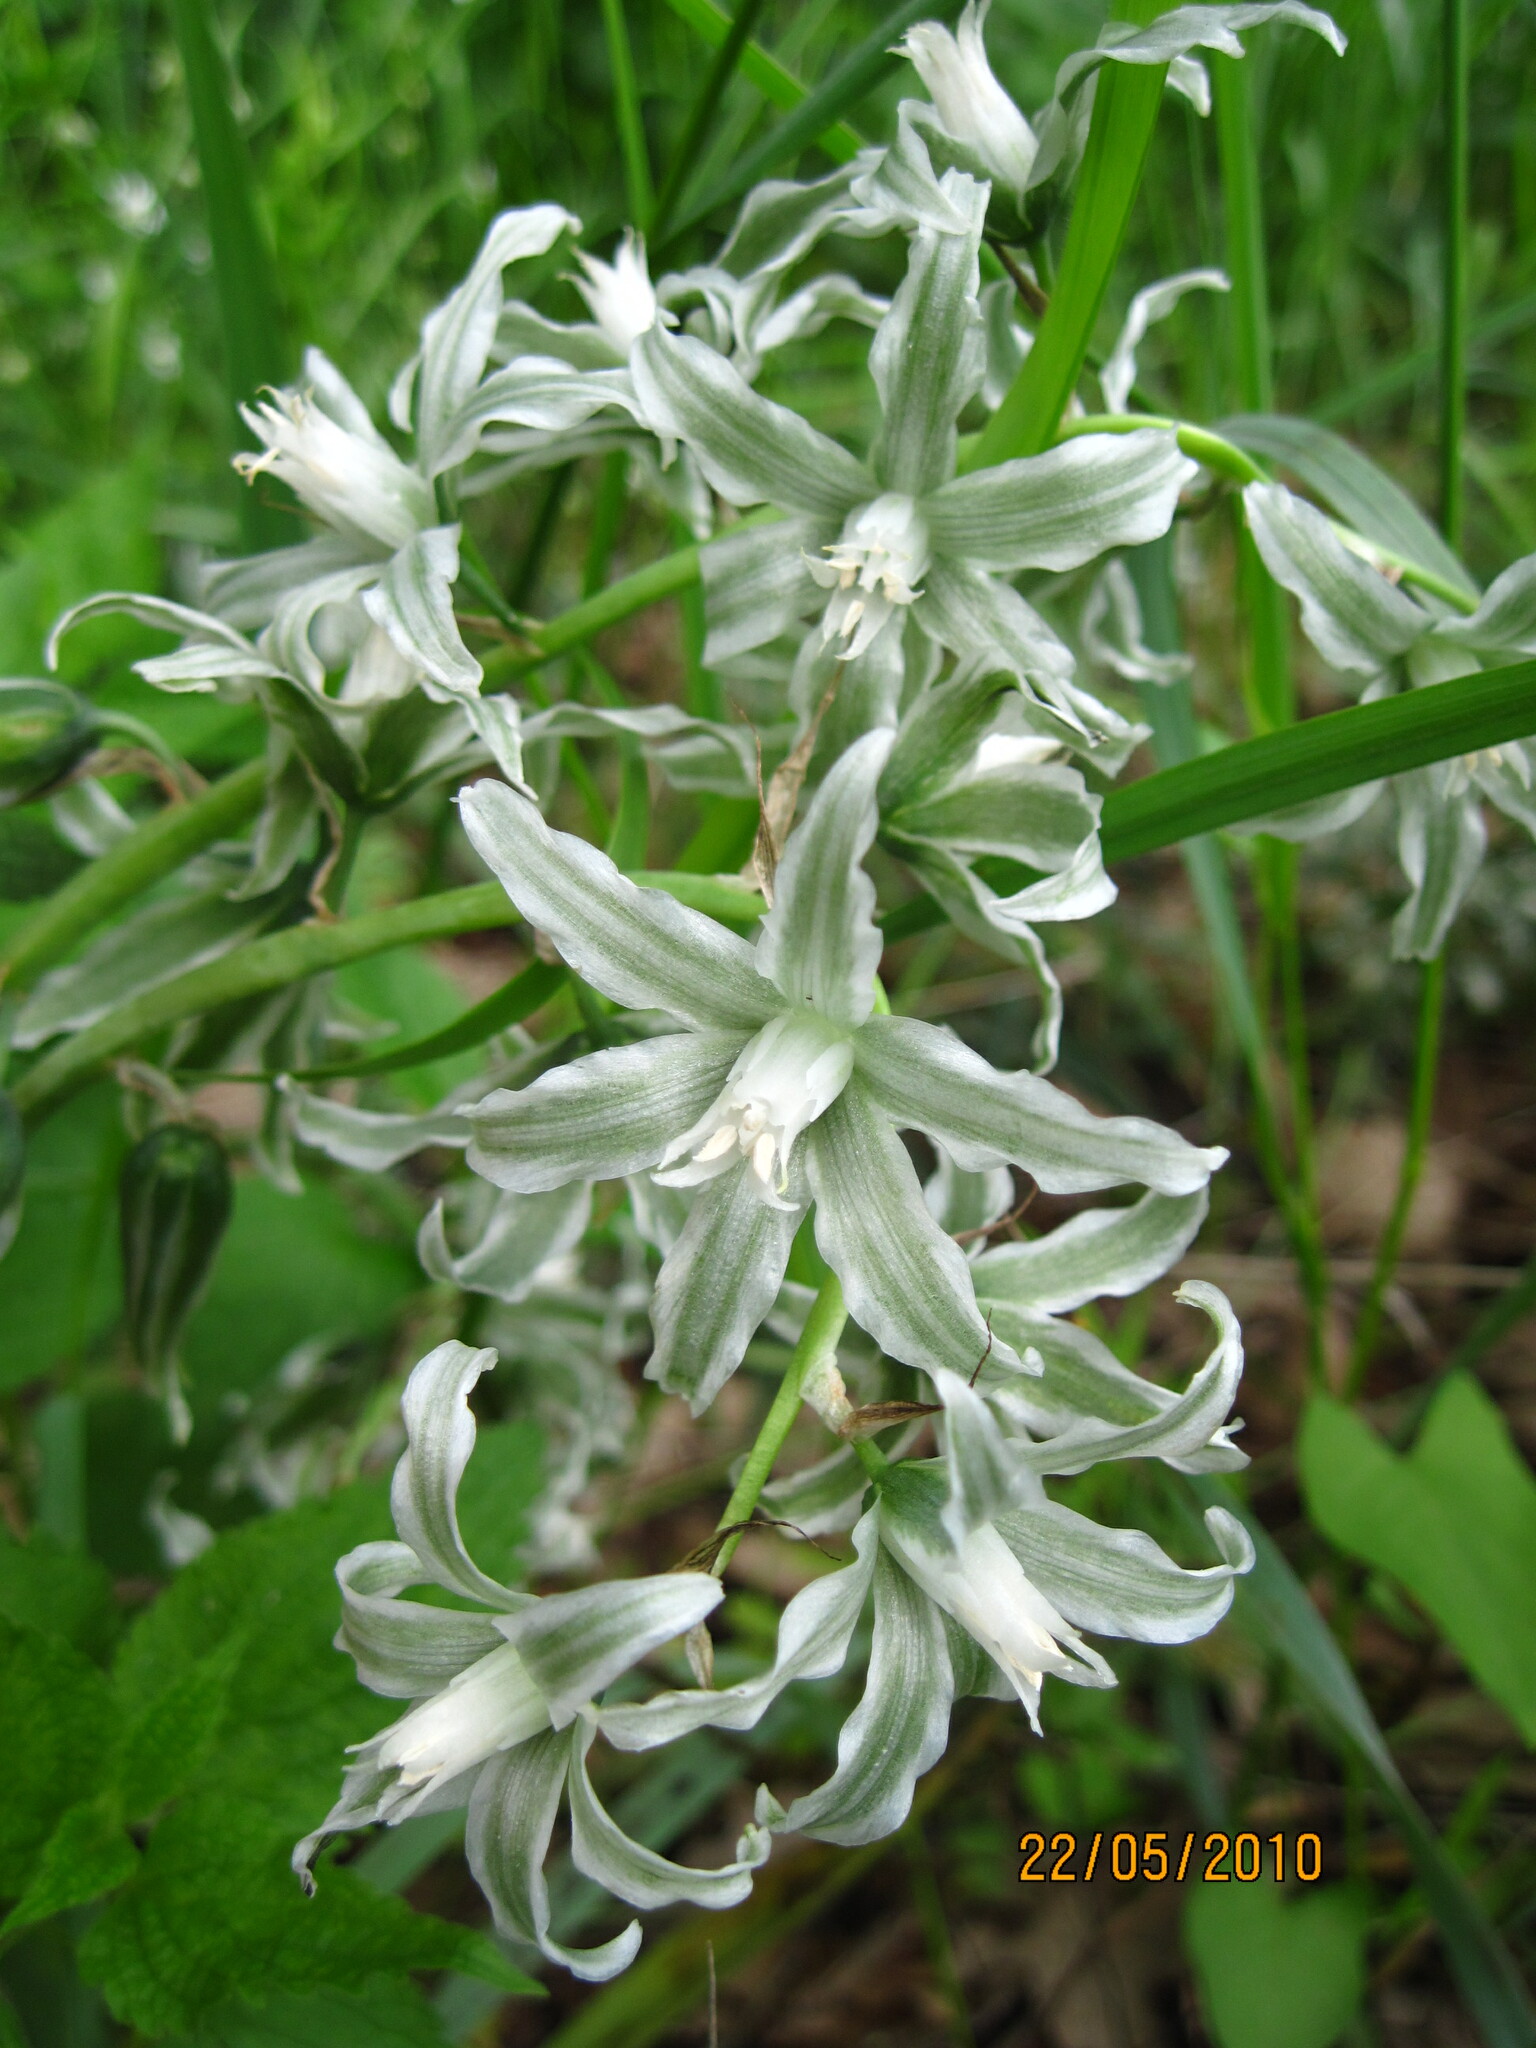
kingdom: Plantae
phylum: Tracheophyta
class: Liliopsida
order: Asparagales
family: Asparagaceae
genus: Ornithogalum
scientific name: Ornithogalum boucheanum
